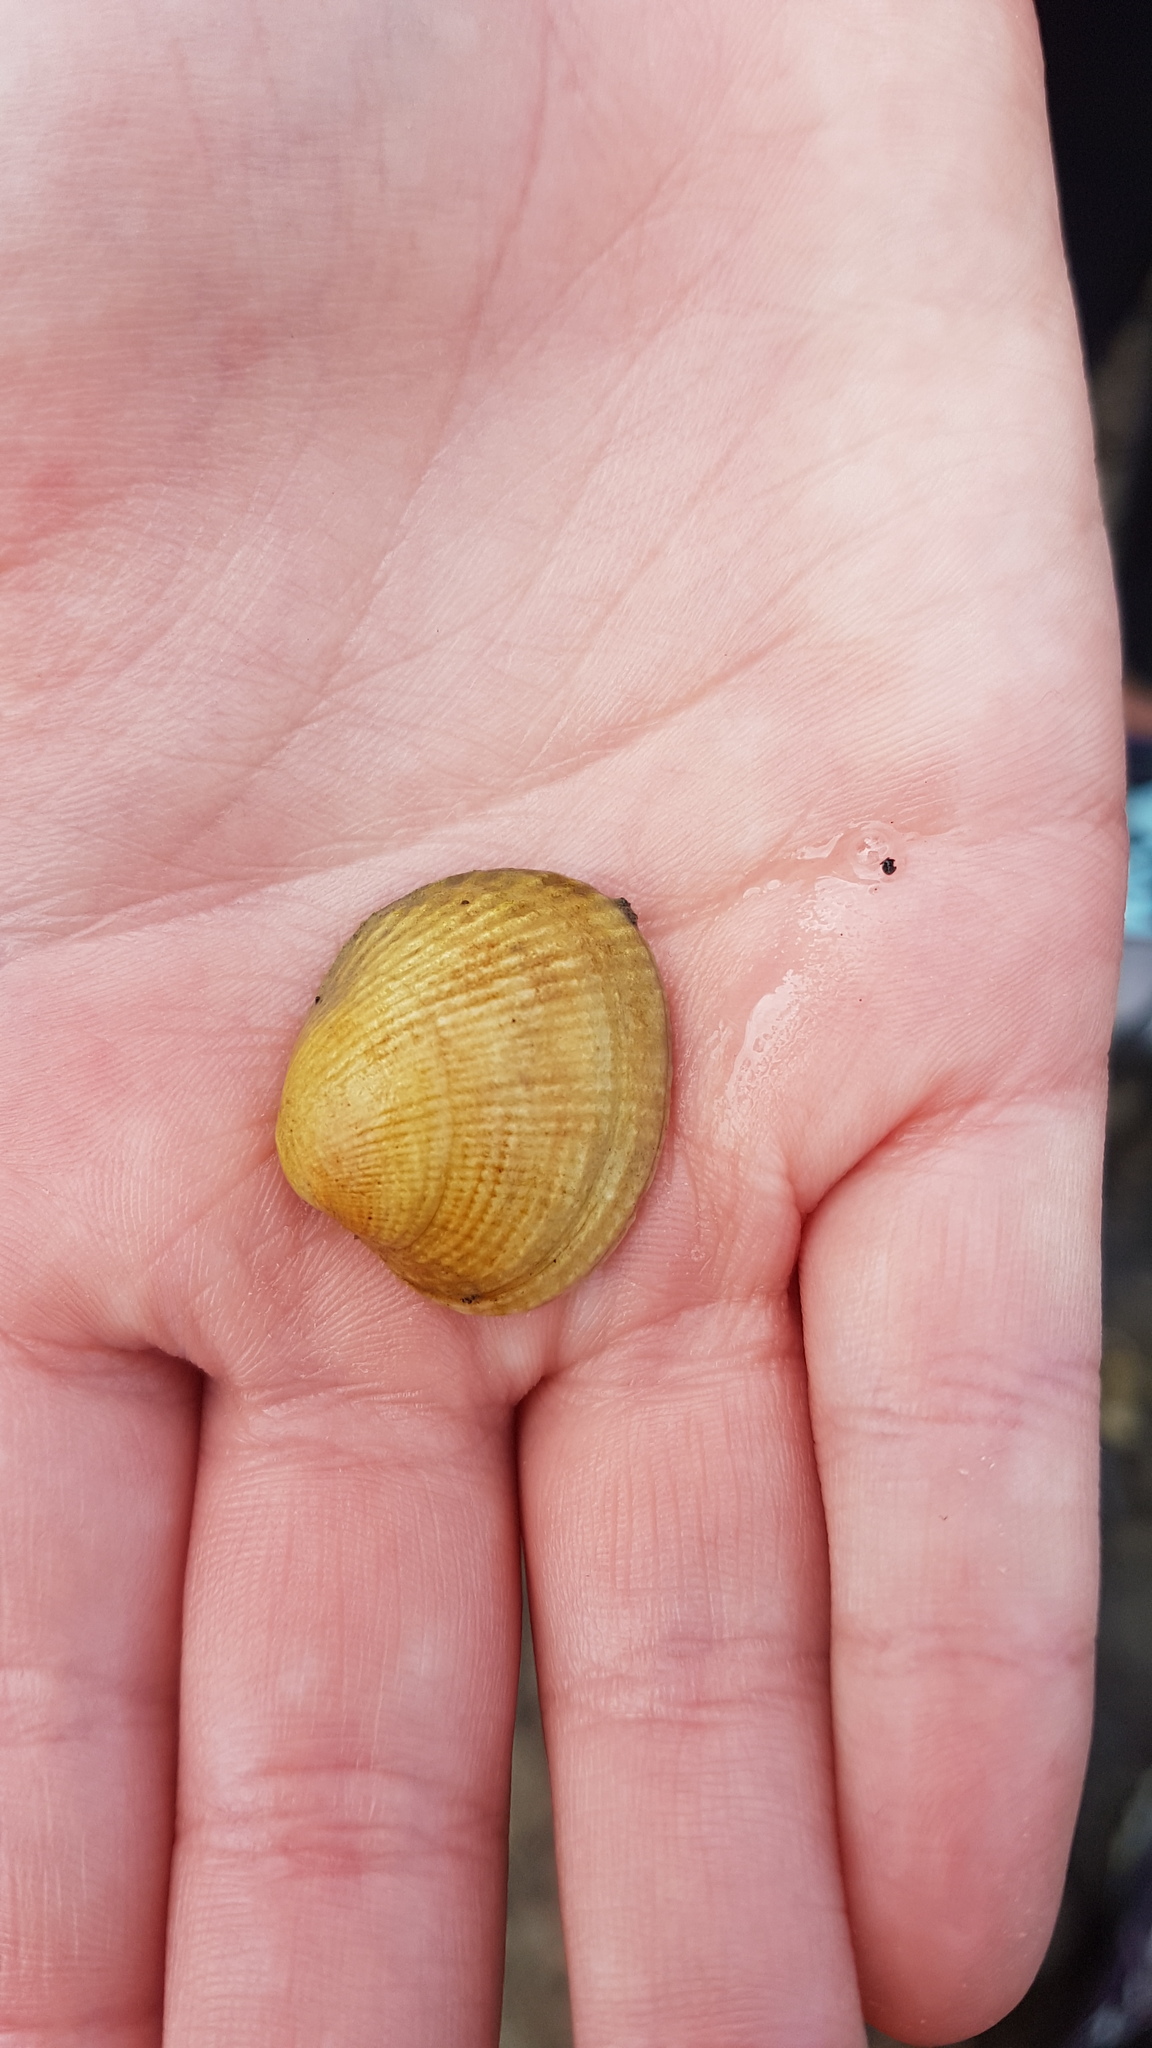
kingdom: Animalia
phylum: Mollusca
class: Bivalvia
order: Venerida
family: Veneridae
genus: Leukoma
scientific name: Leukoma crassicosta
